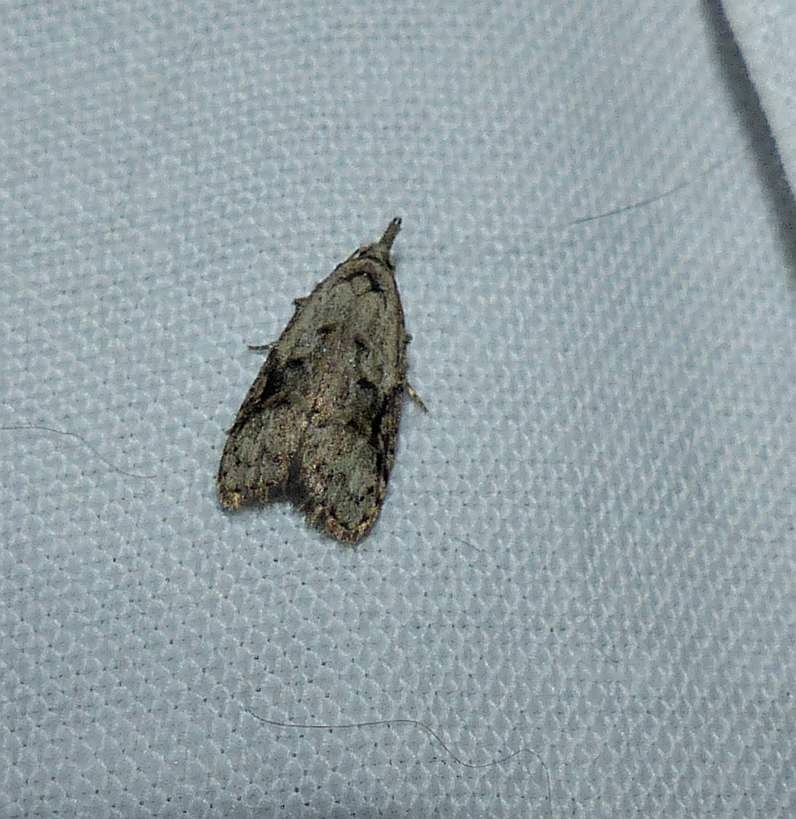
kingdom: Animalia
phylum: Arthropoda
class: Insecta
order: Lepidoptera
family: Carposinidae
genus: Carposina
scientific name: Carposina fernaldana
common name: Currant fruitworm moth
